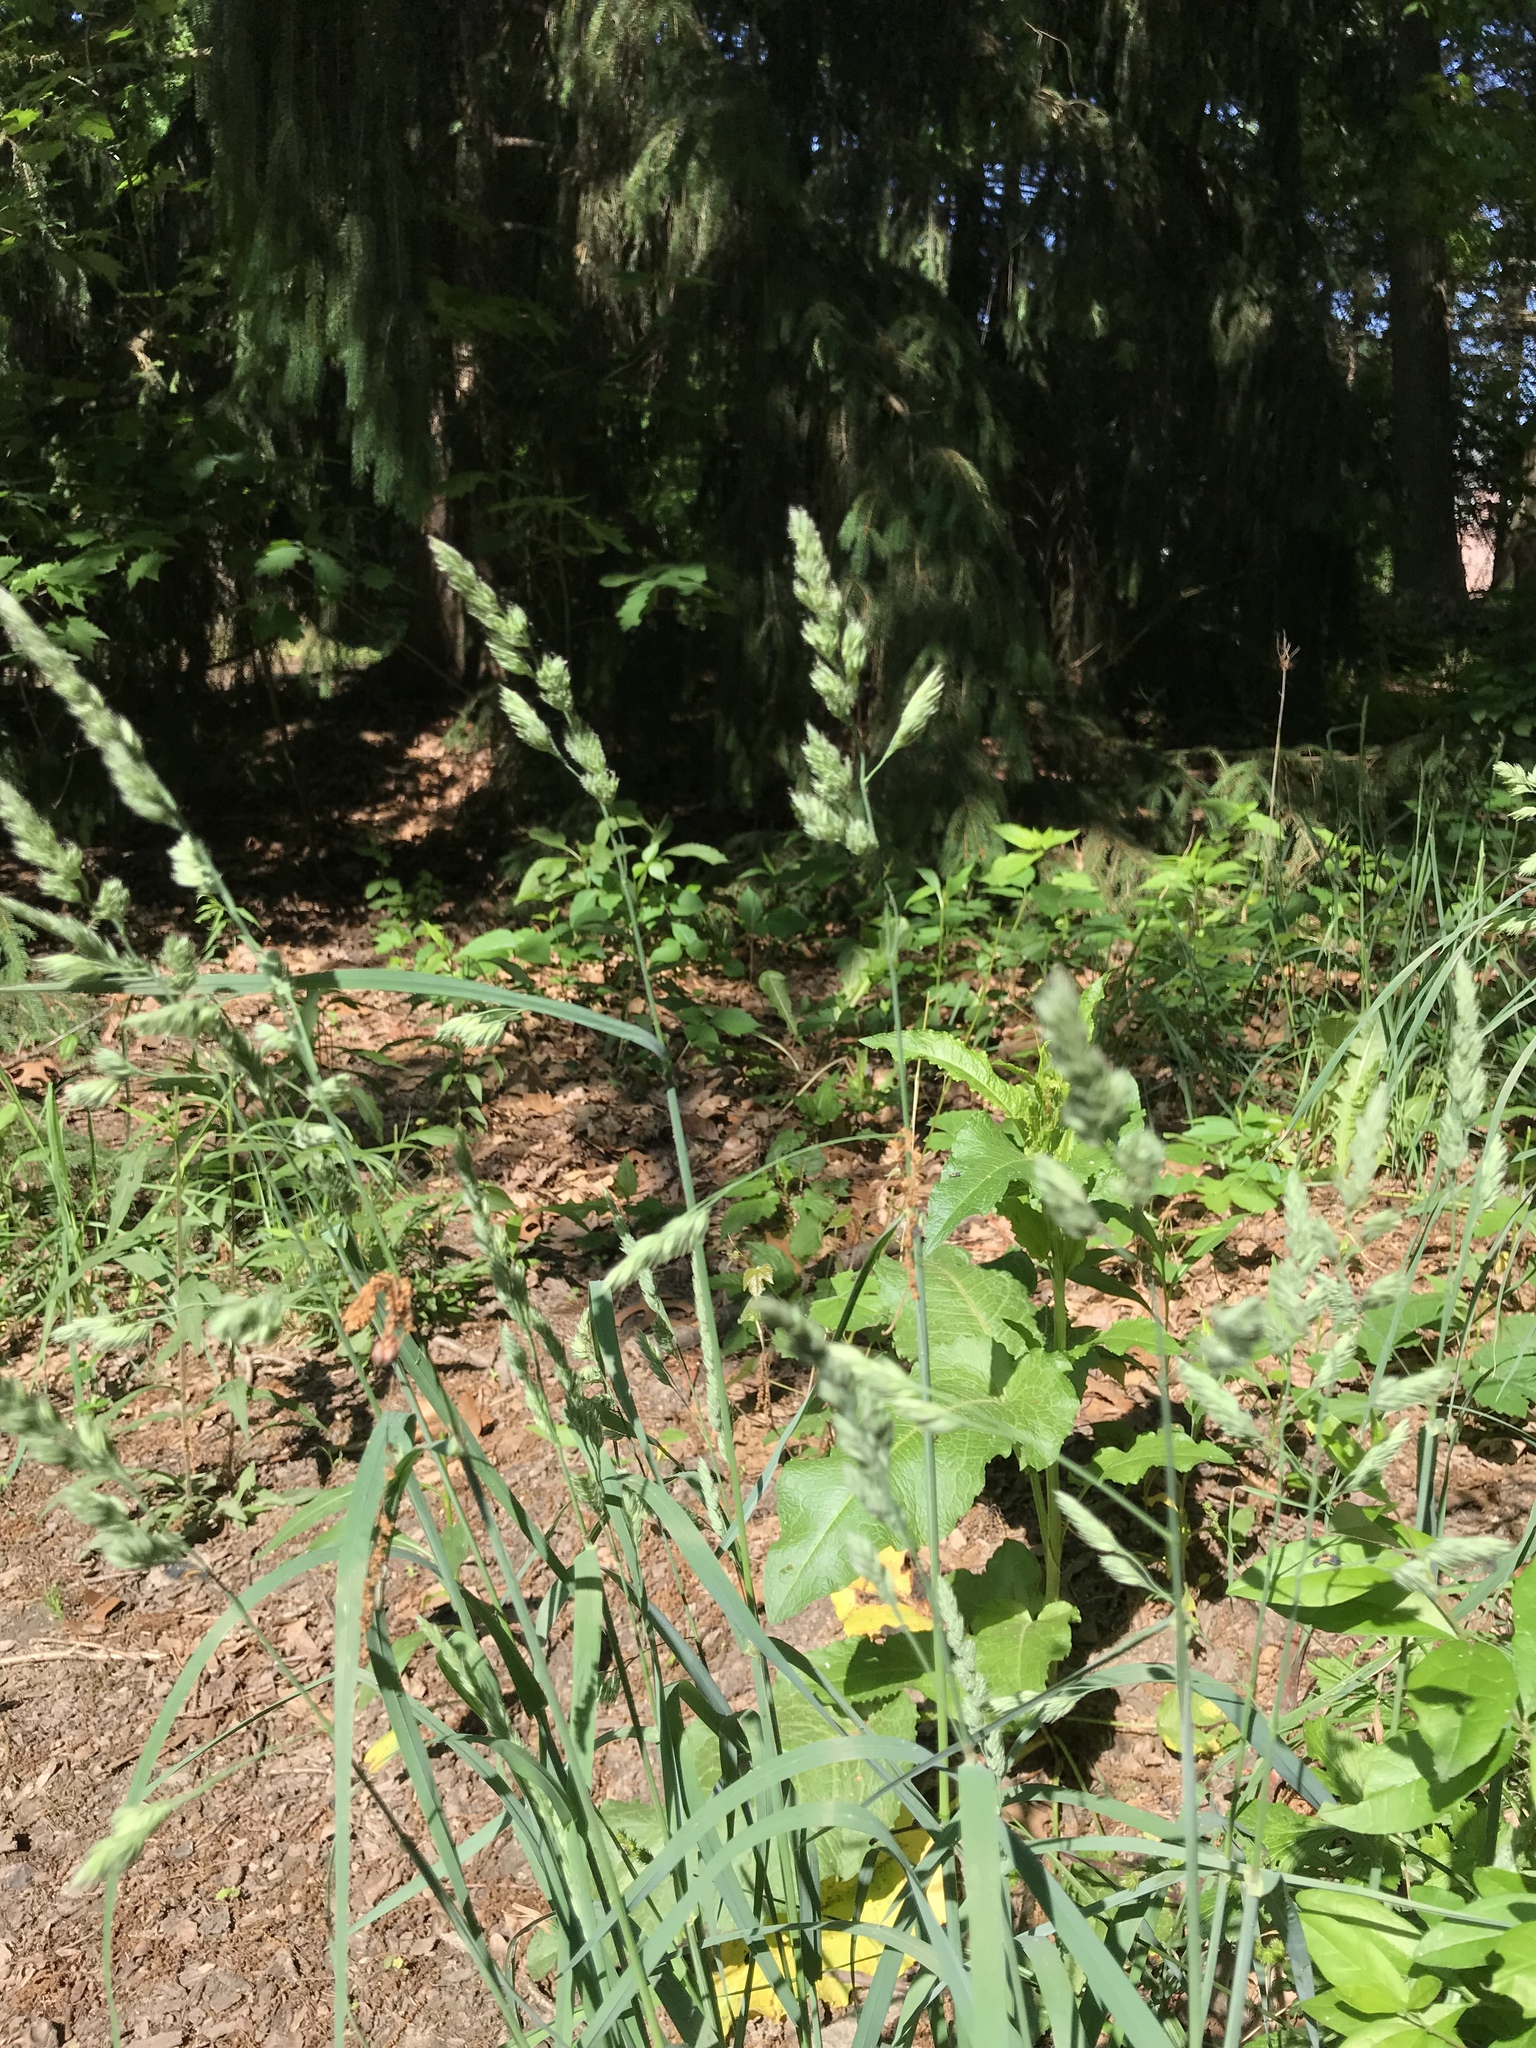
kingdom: Plantae
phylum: Tracheophyta
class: Liliopsida
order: Poales
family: Poaceae
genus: Dactylis
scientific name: Dactylis glomerata
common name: Orchardgrass
